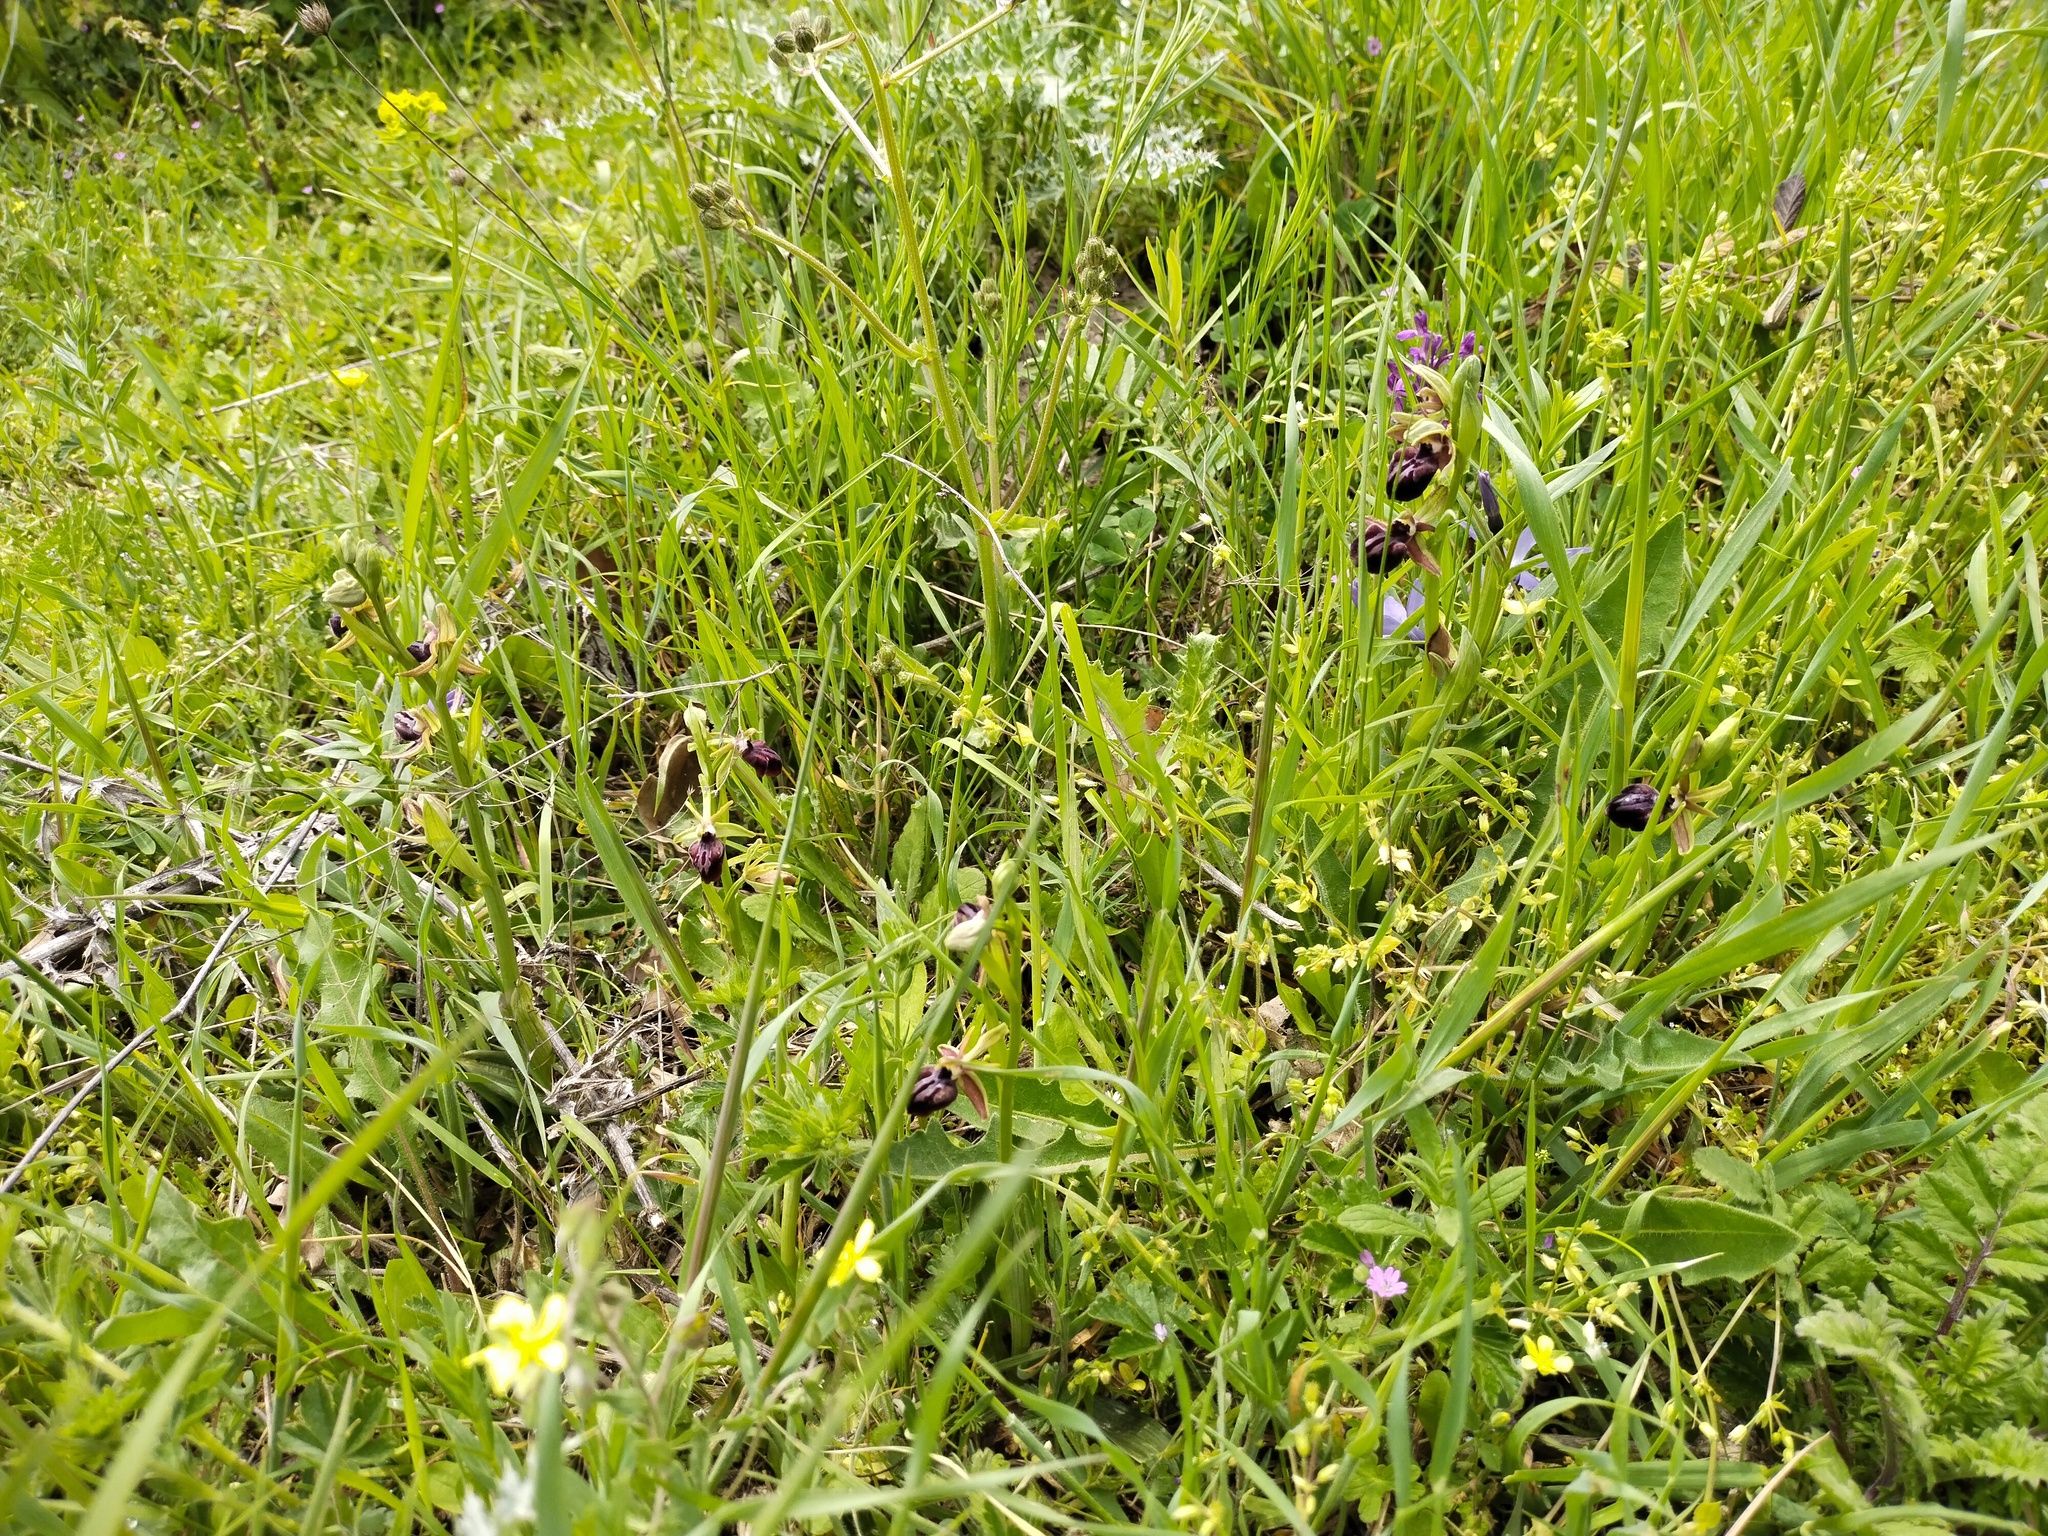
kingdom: Plantae
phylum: Tracheophyta
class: Liliopsida
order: Asparagales
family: Orchidaceae
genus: Ophrys
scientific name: Ophrys sphegodes
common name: Early spider-orchid
